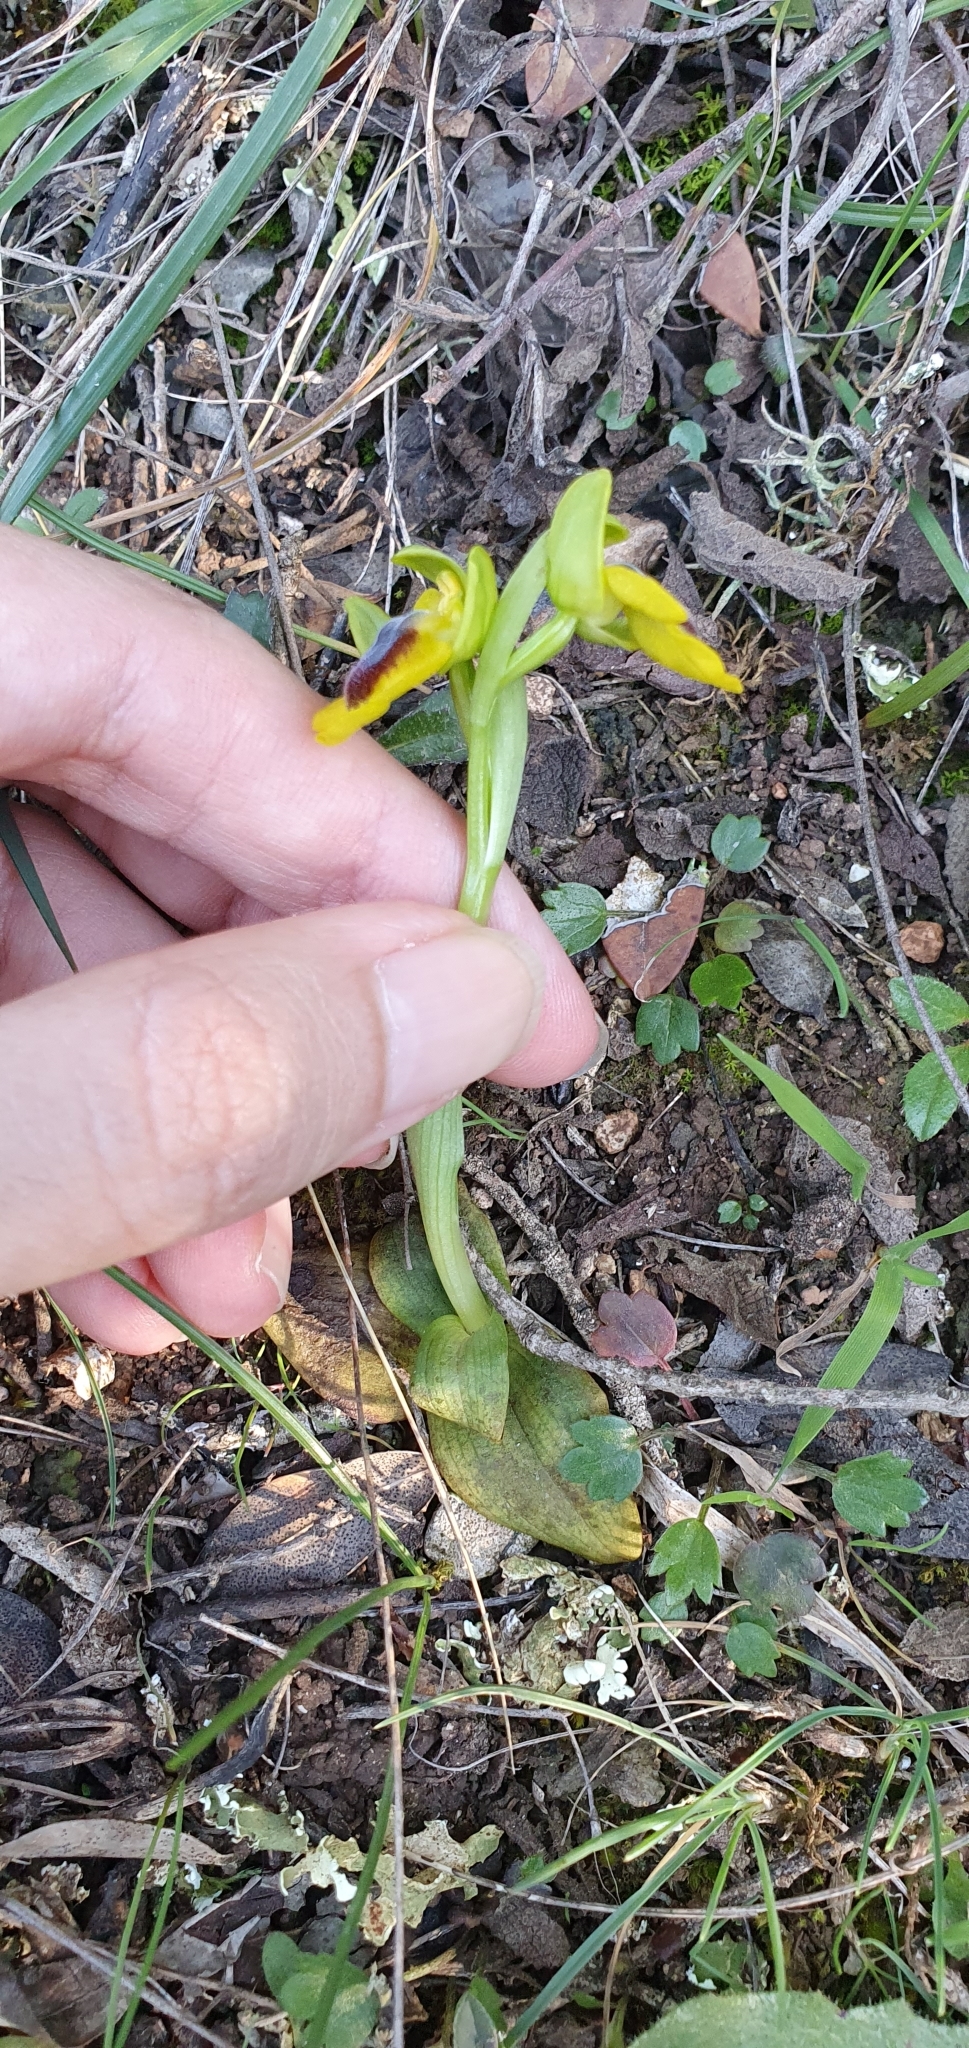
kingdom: Plantae
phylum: Tracheophyta
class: Liliopsida
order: Asparagales
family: Orchidaceae
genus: Ophrys
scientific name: Ophrys lutea
